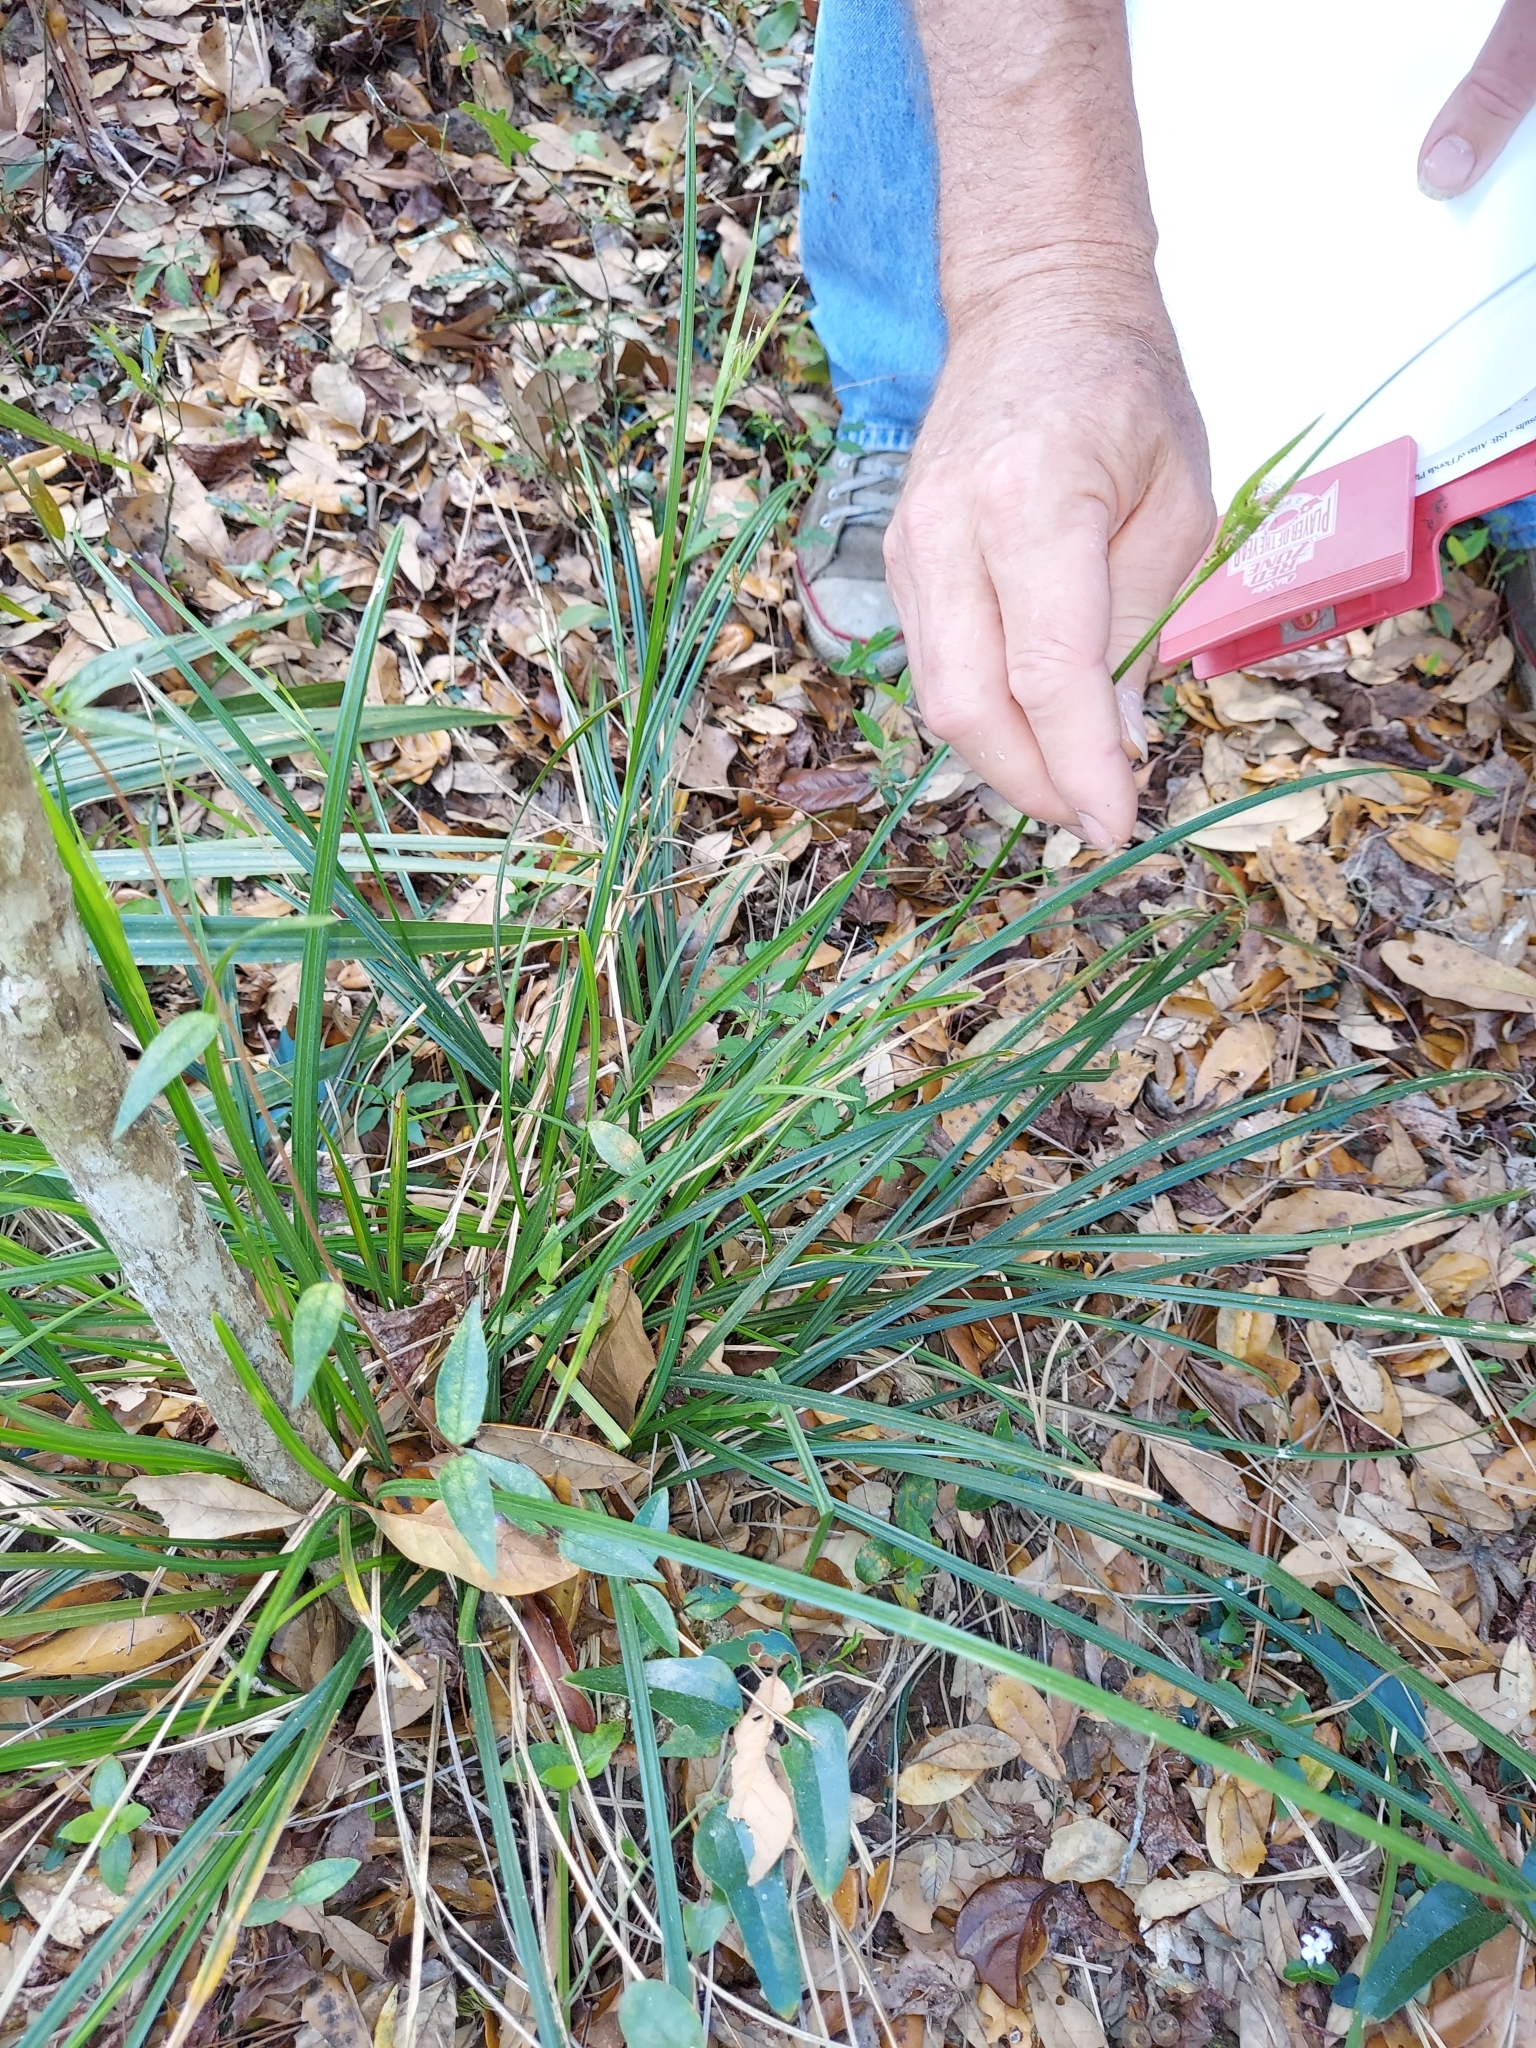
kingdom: Plantae
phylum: Tracheophyta
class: Liliopsida
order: Poales
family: Cyperaceae
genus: Scleria
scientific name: Scleria triglomerata
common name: Whip nutrush
